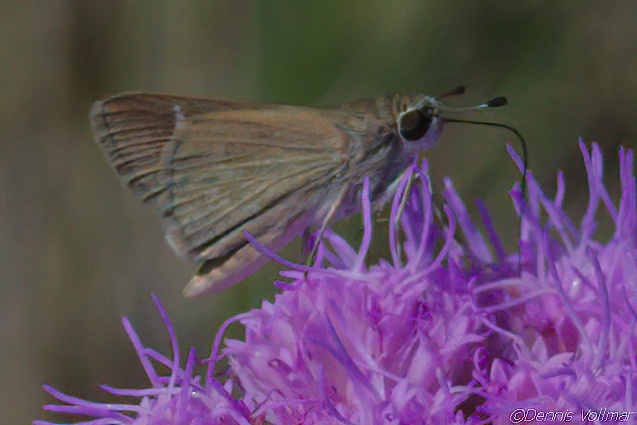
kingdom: Animalia
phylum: Arthropoda
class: Insecta
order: Lepidoptera
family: Hesperiidae
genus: Lerodea
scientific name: Lerodea eufala
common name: Eufala skipper
